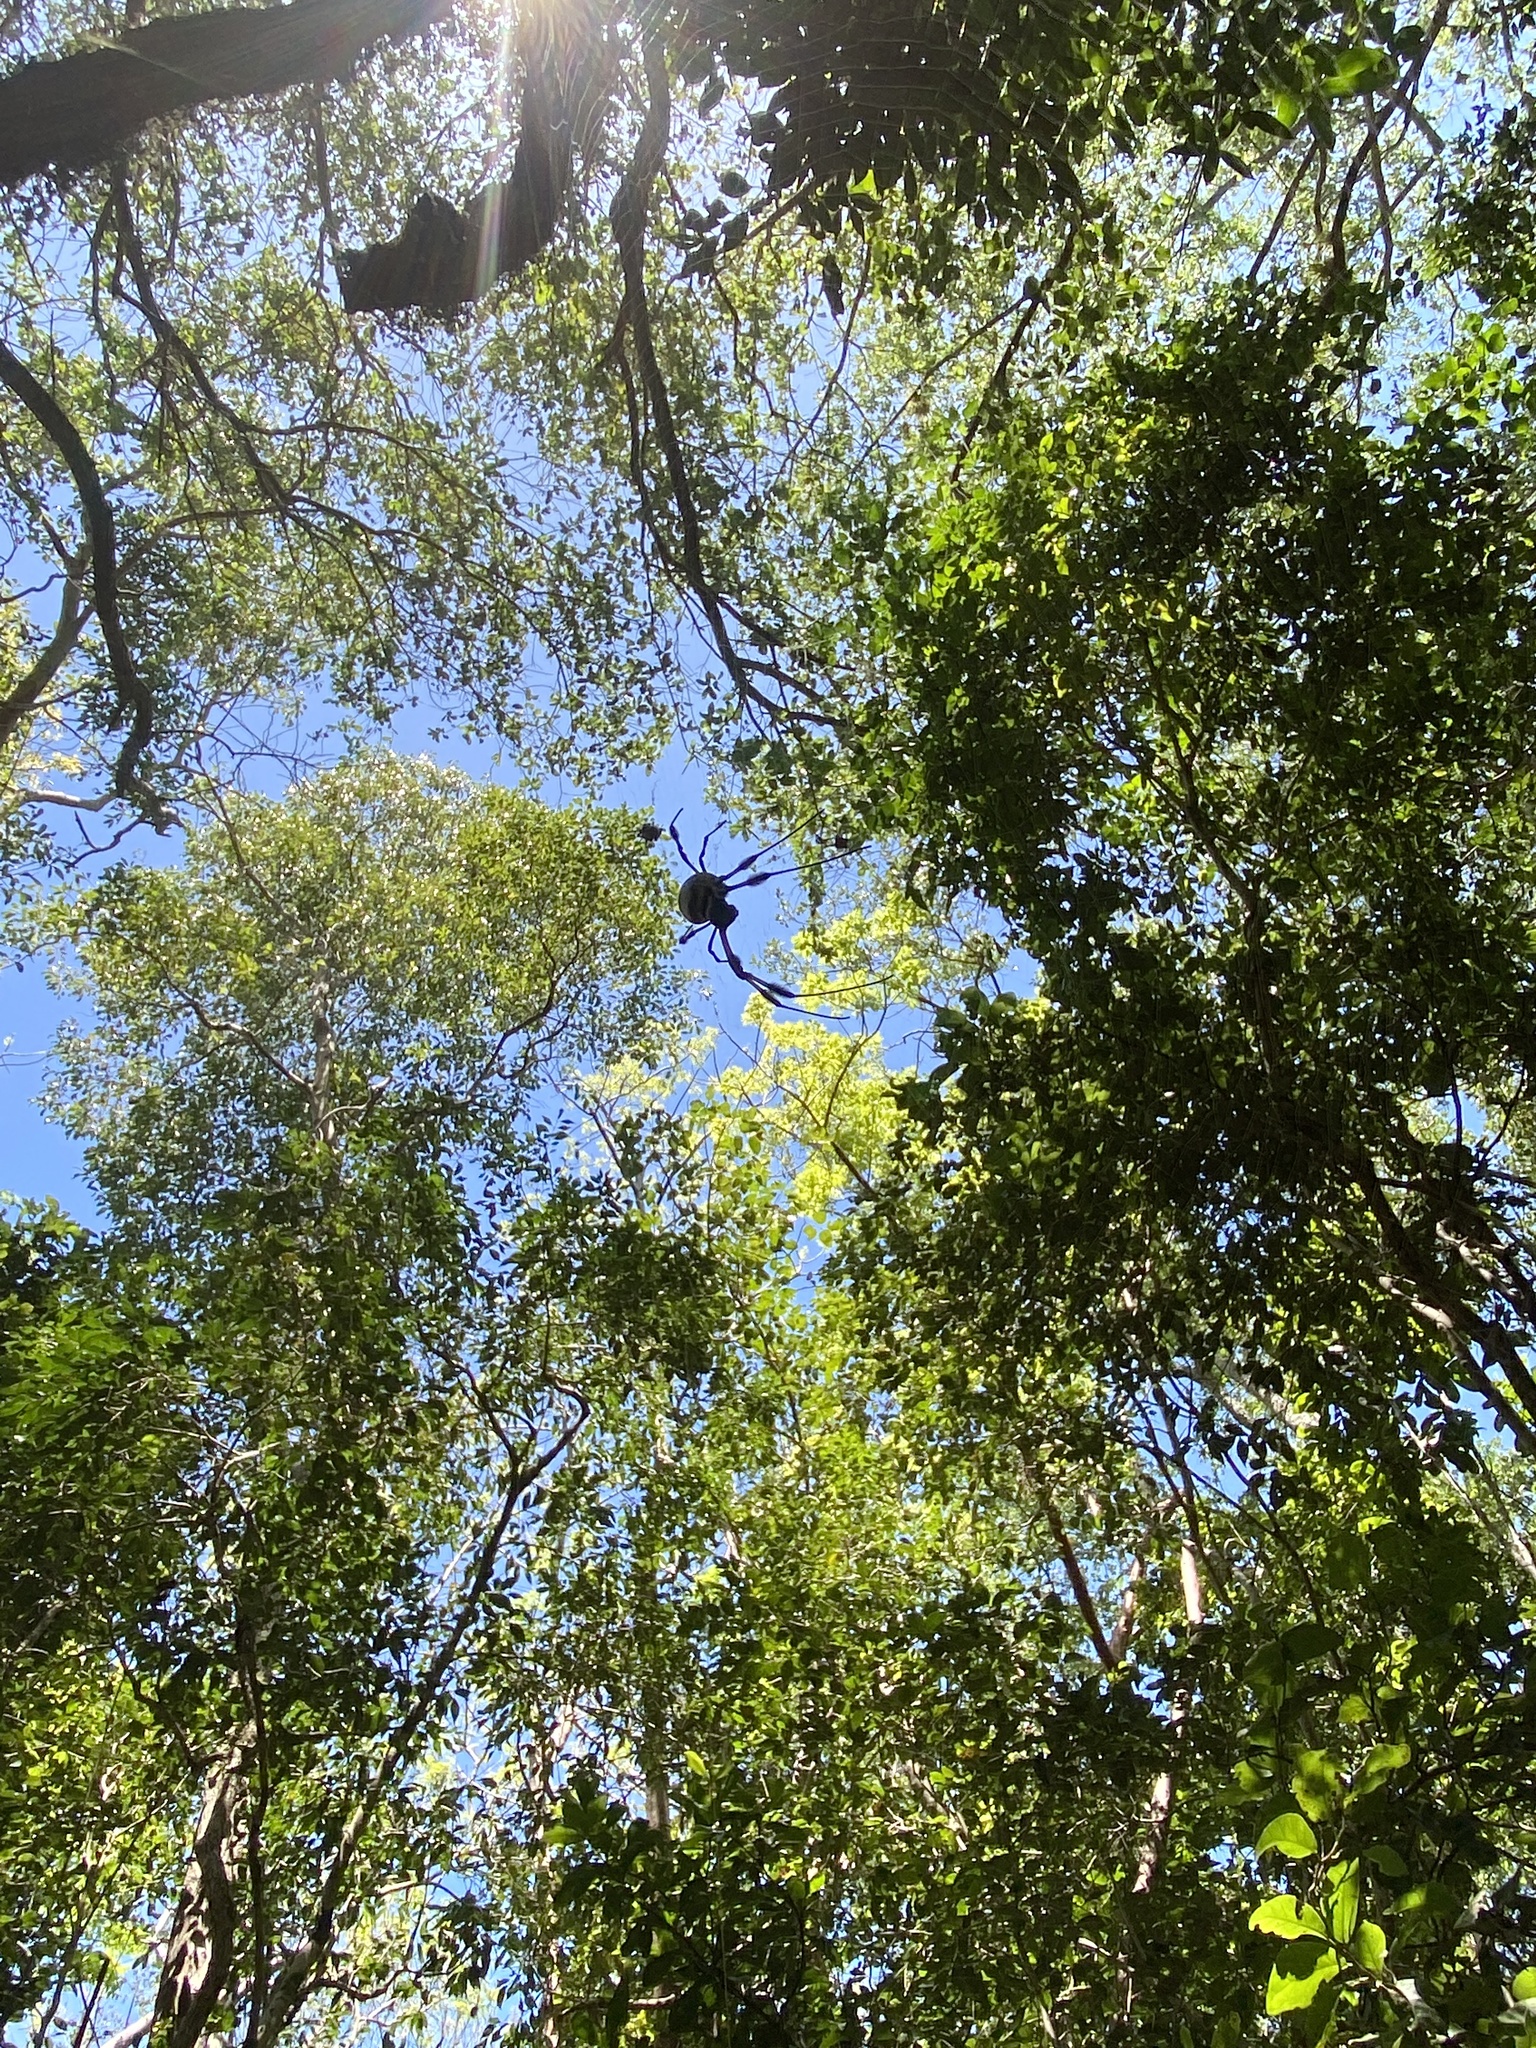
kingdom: Animalia
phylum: Arthropoda
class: Arachnida
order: Araneae
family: Araneidae
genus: Trichonephila
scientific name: Trichonephila clavipes
